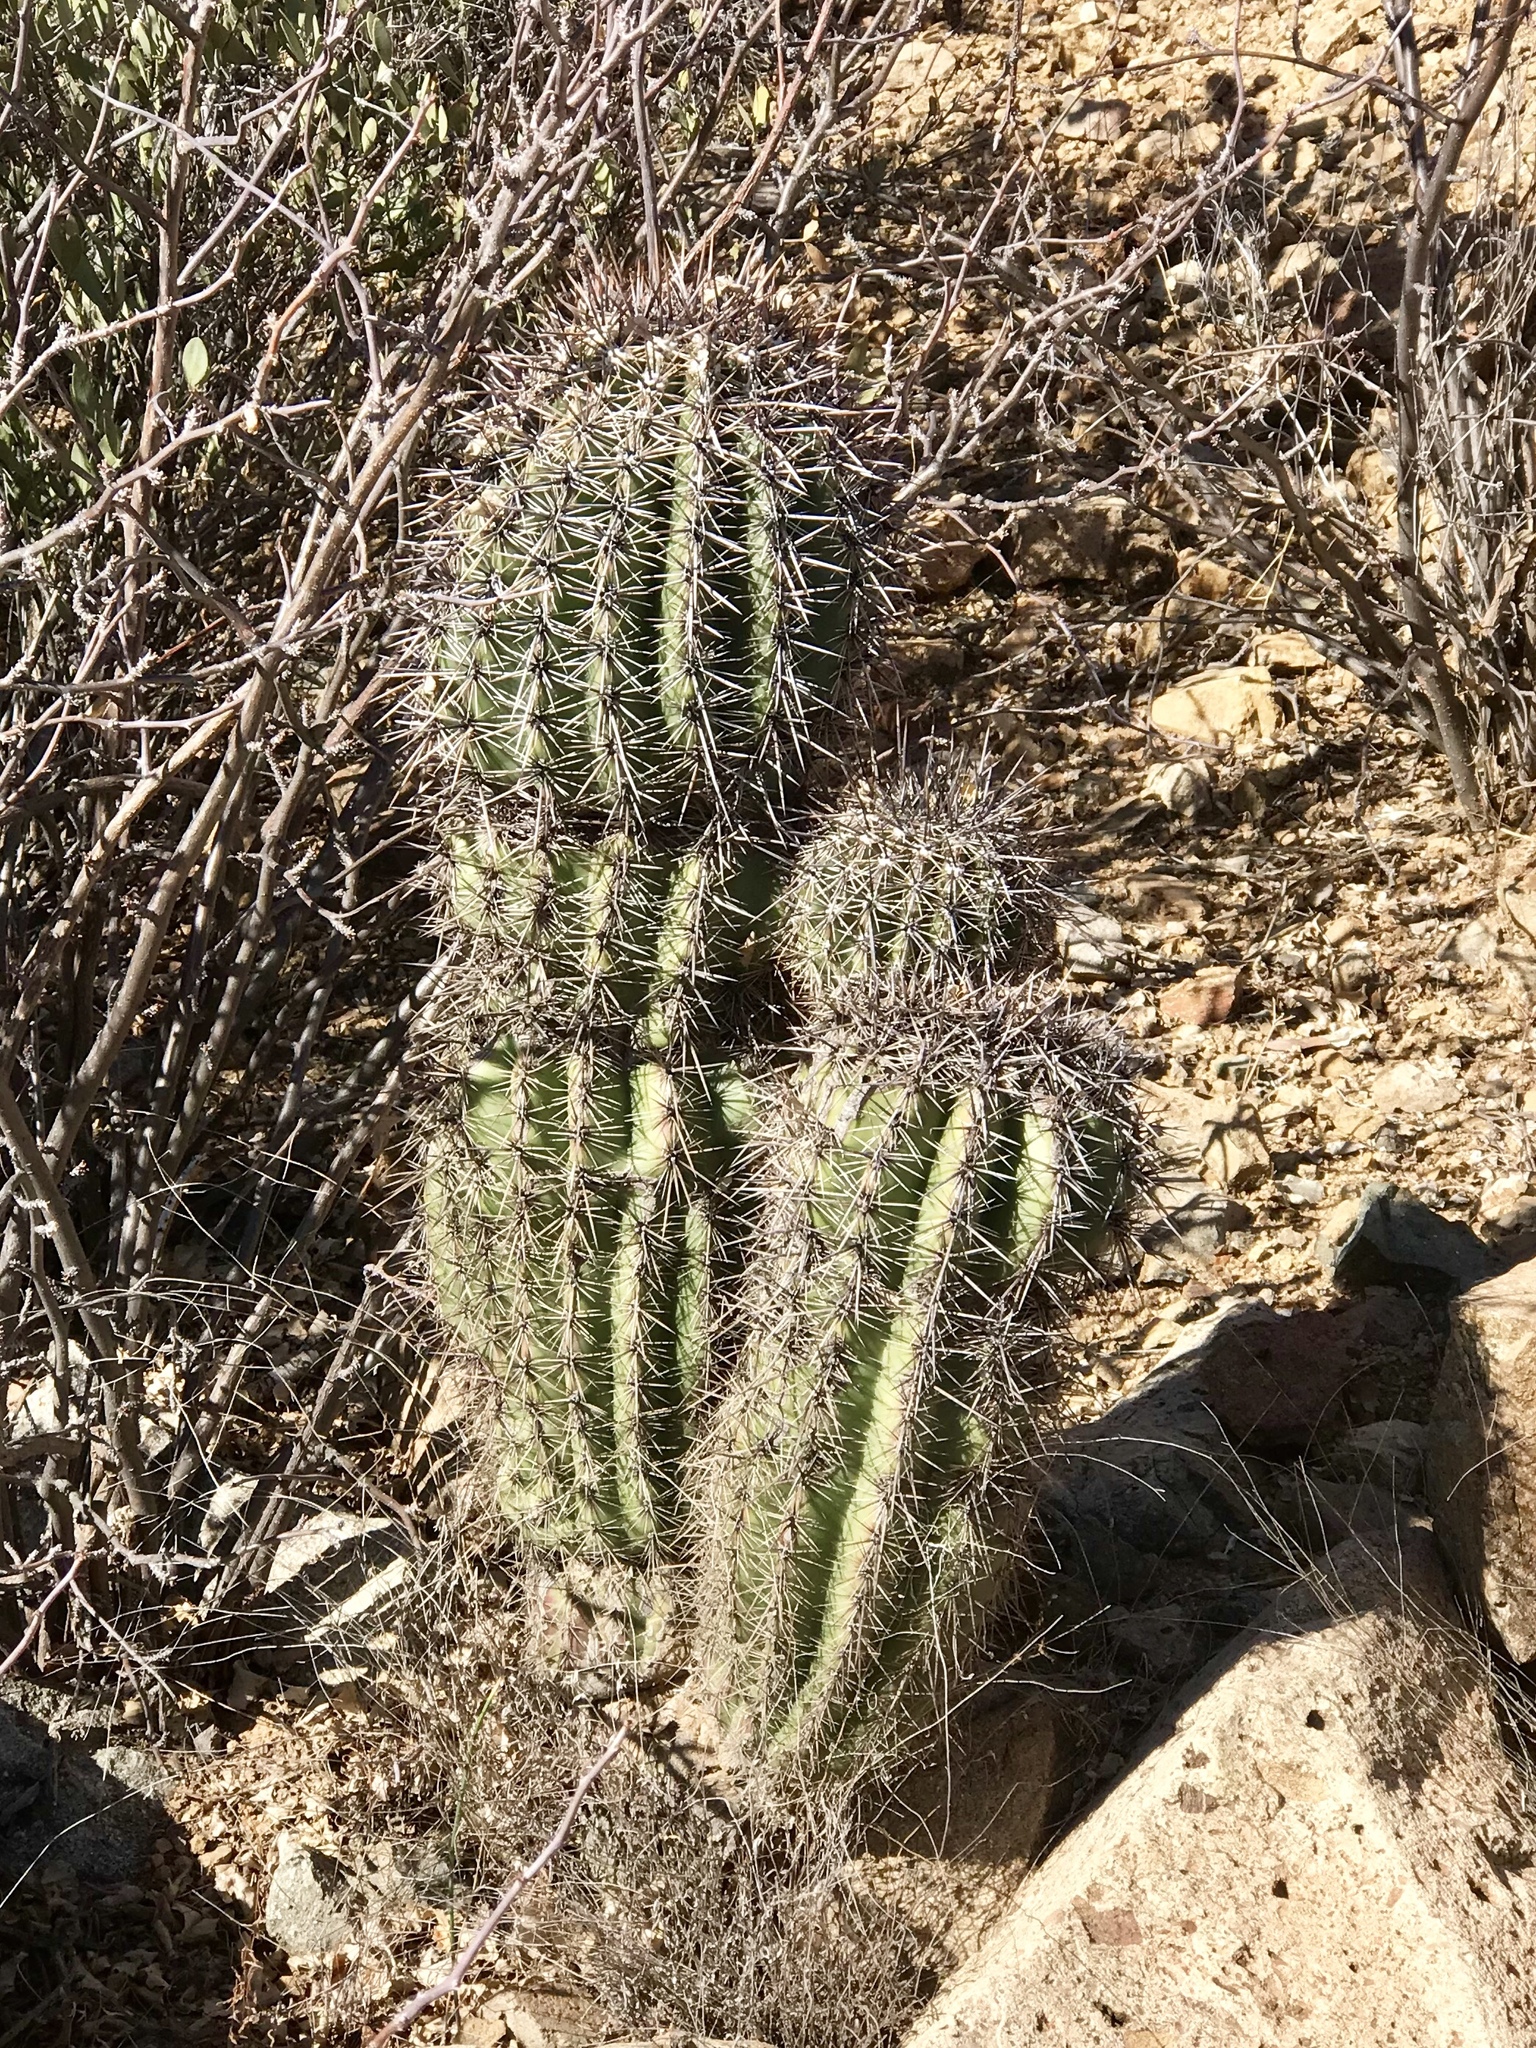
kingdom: Plantae
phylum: Tracheophyta
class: Magnoliopsida
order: Caryophyllales
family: Cactaceae
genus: Carnegiea
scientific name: Carnegiea gigantea
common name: Saguaro
